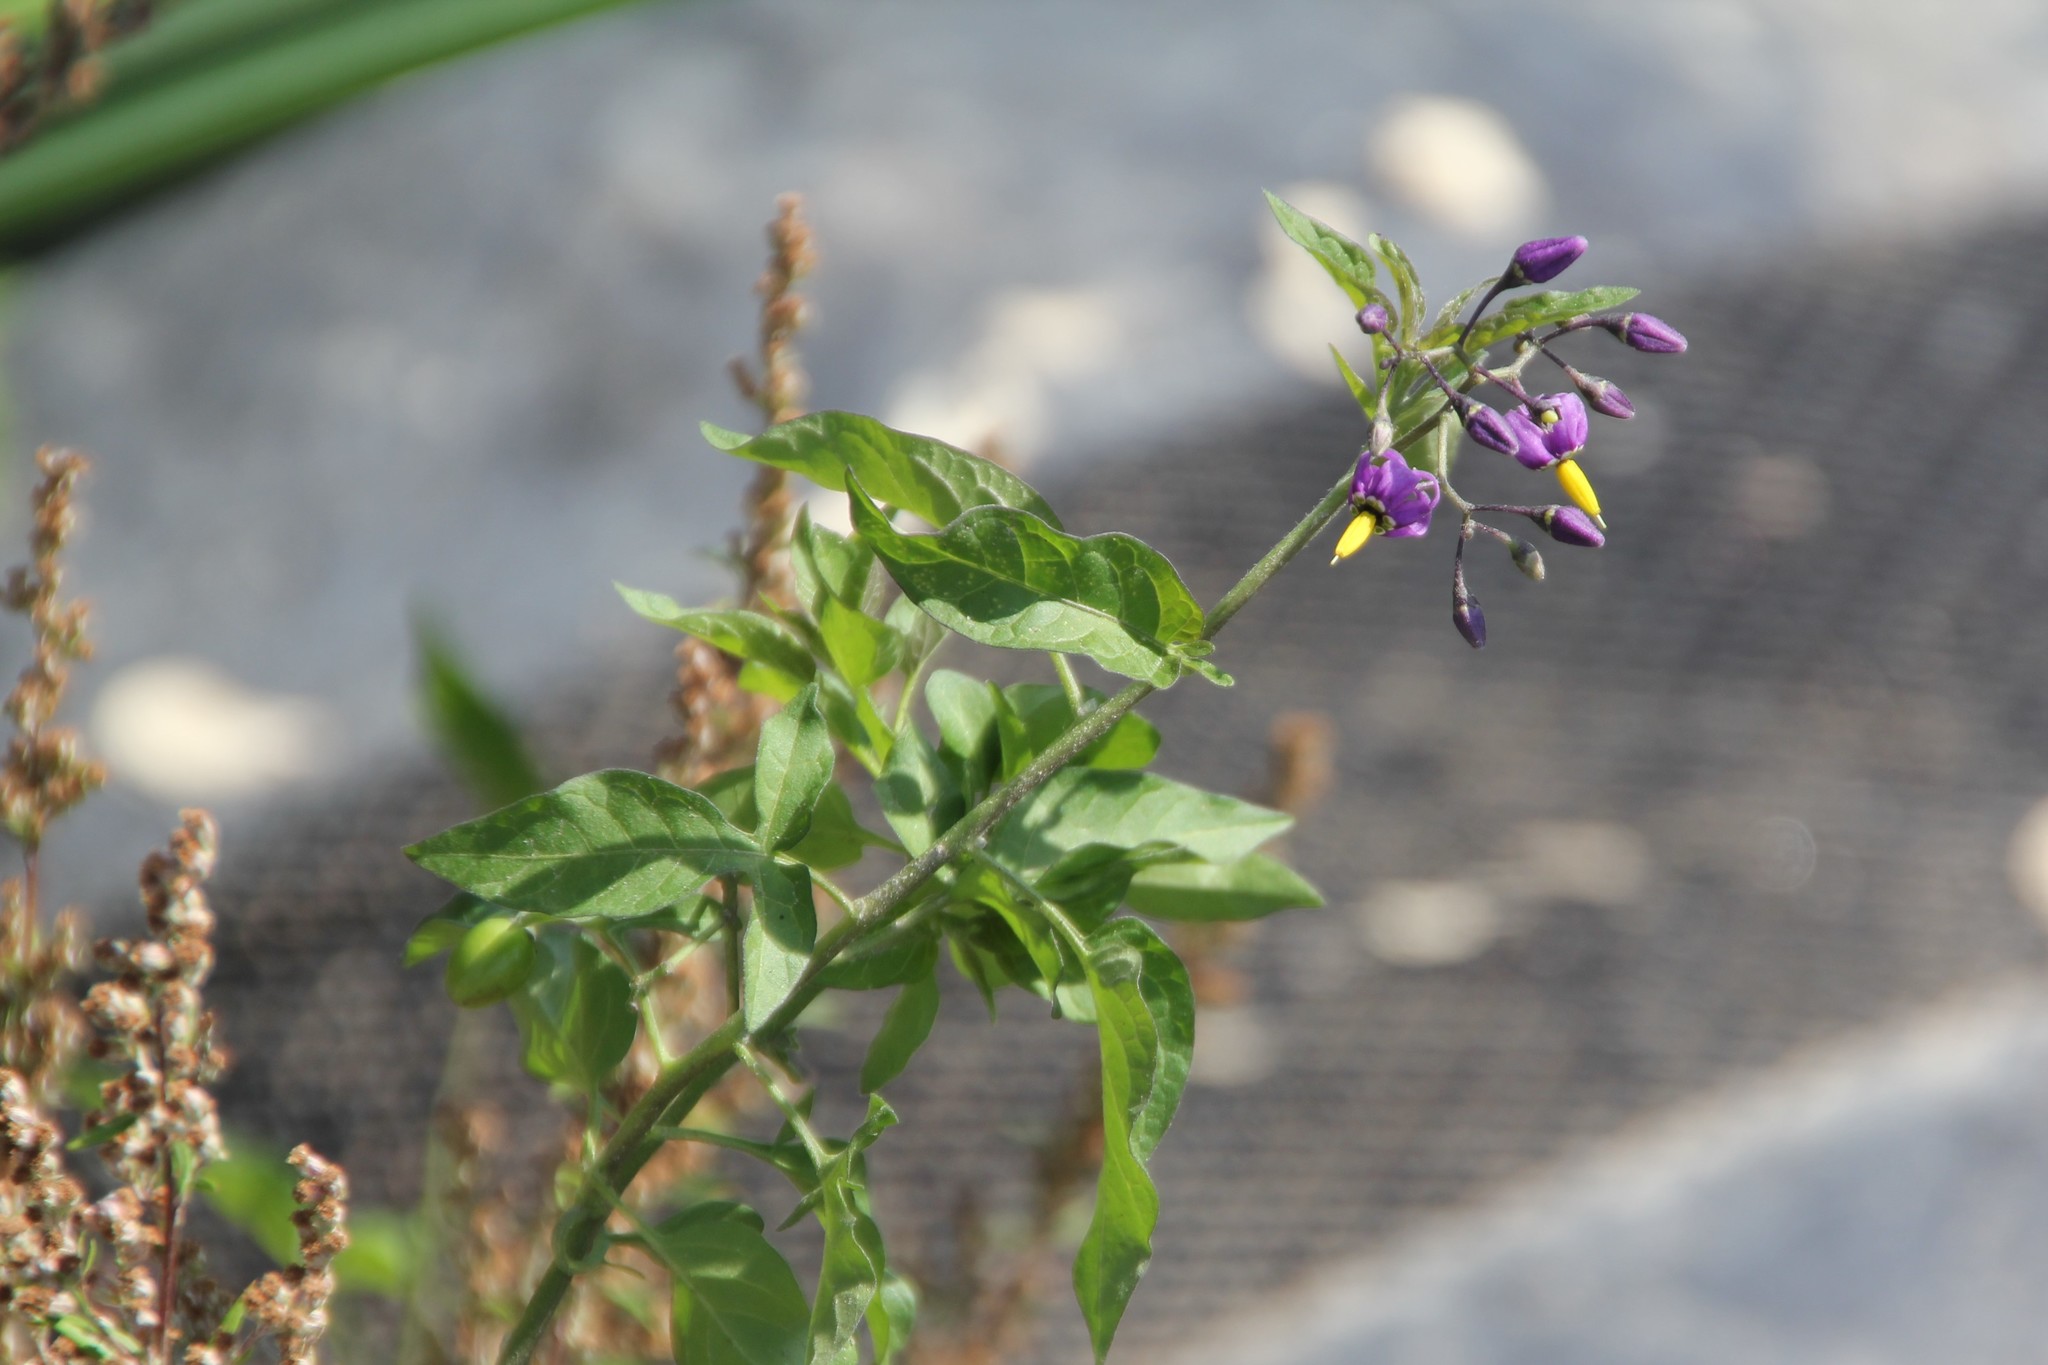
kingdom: Plantae
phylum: Tracheophyta
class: Magnoliopsida
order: Solanales
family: Solanaceae
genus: Solanum
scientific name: Solanum dulcamara
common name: Climbing nightshade
